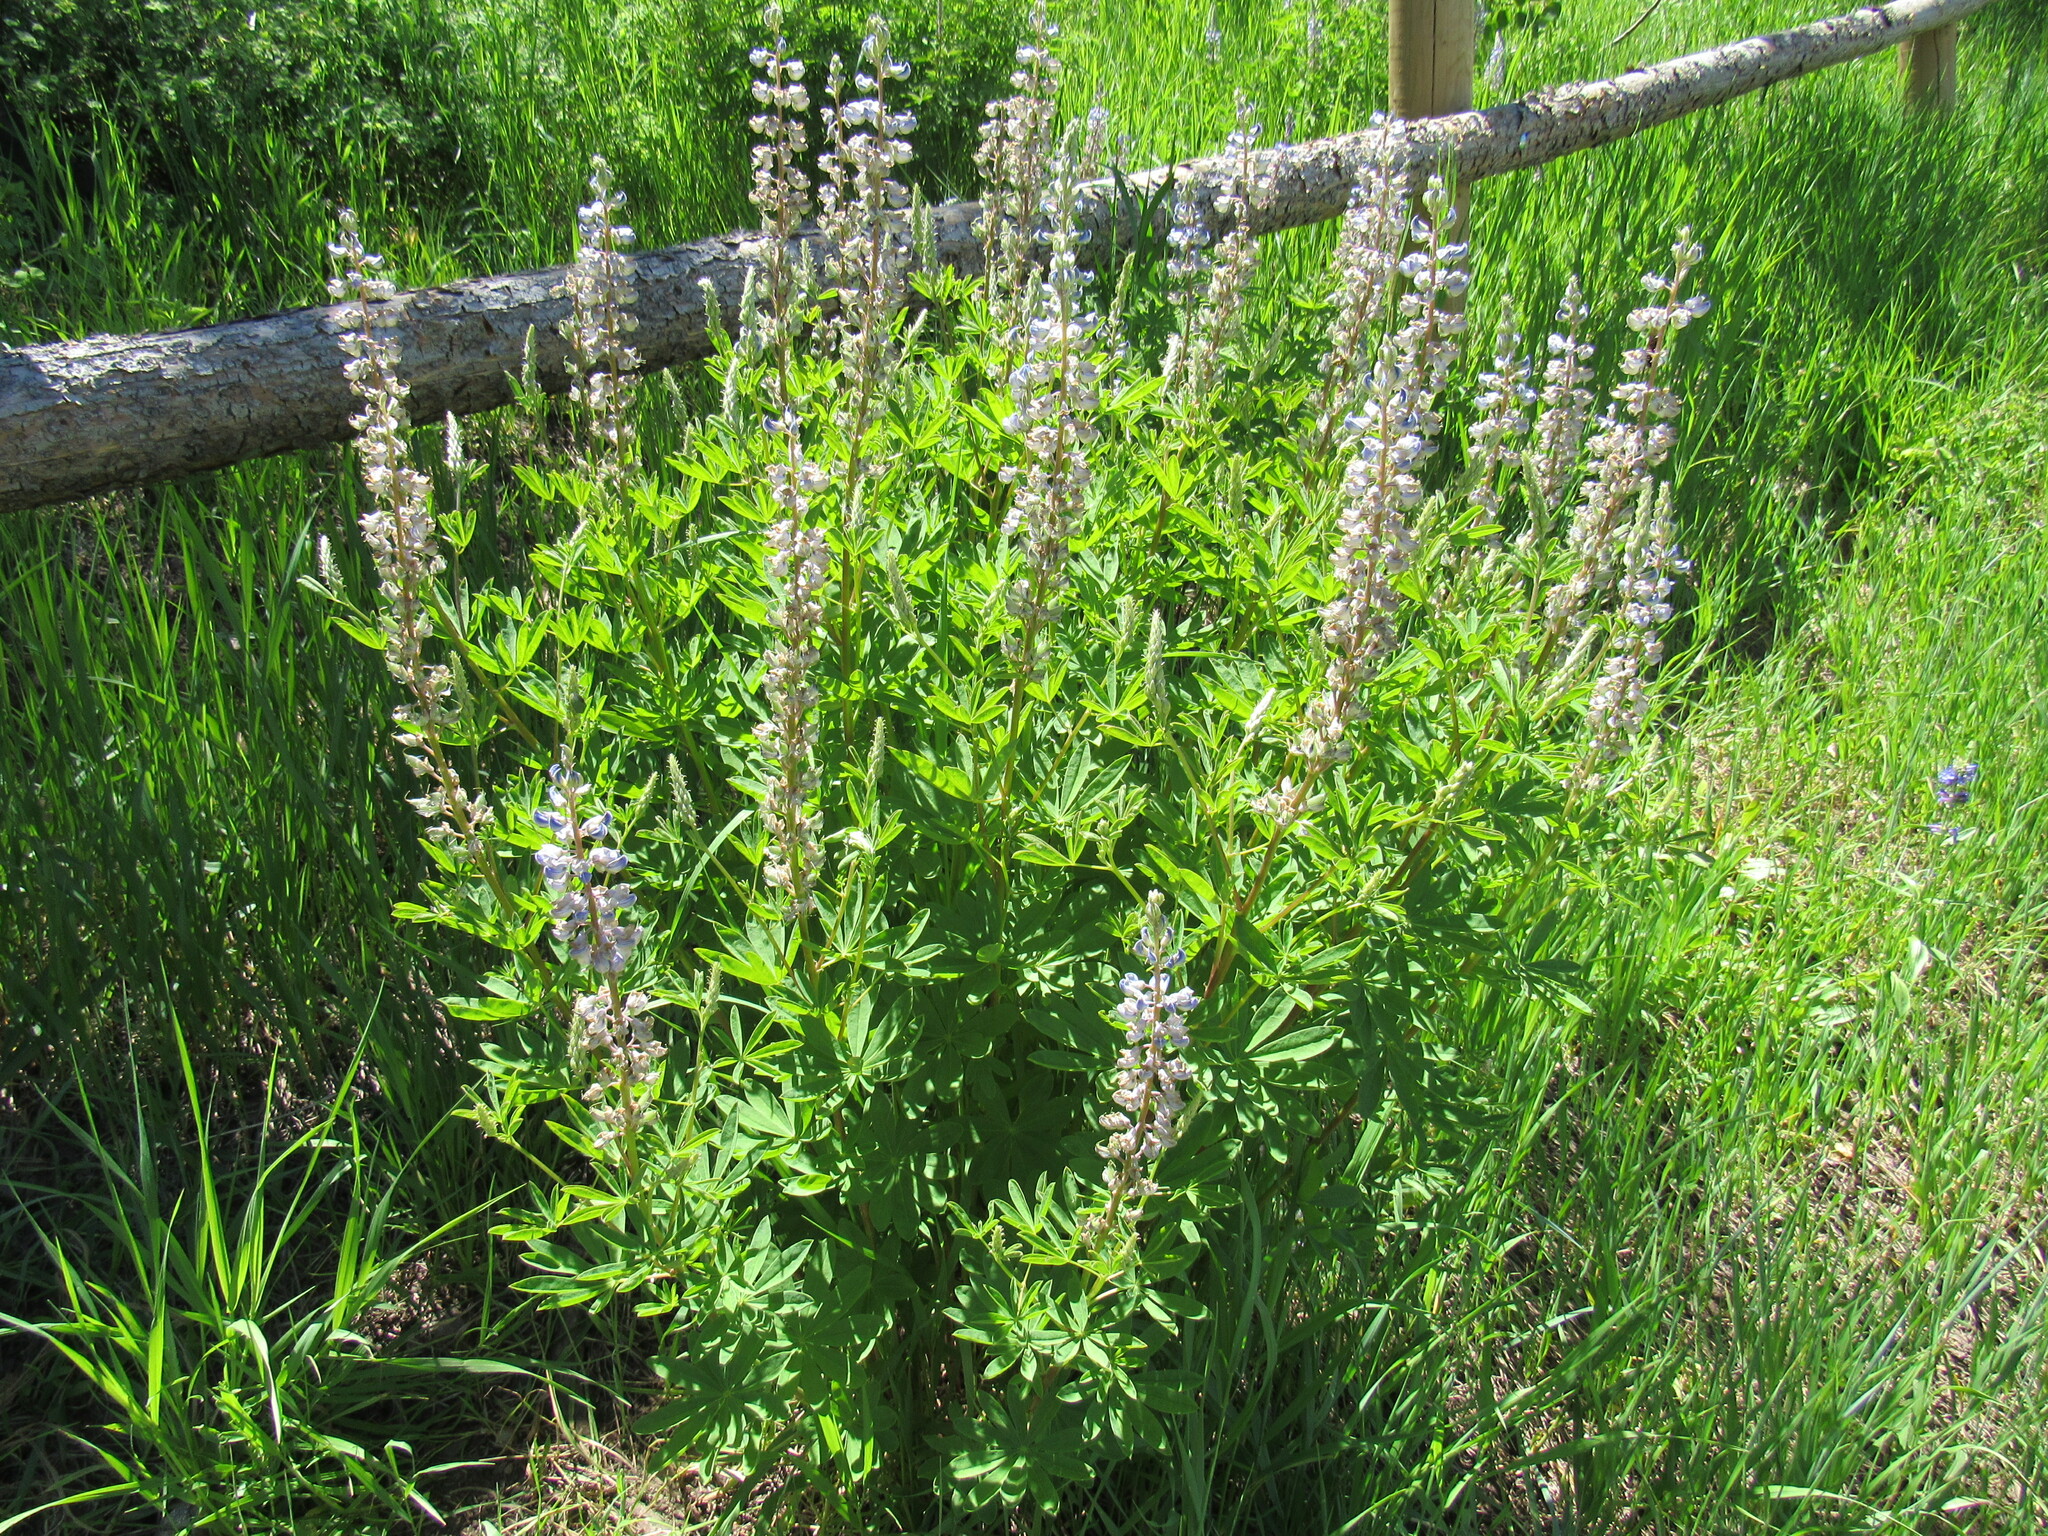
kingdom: Plantae
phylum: Tracheophyta
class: Magnoliopsida
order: Fabales
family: Fabaceae
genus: Lupinus
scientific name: Lupinus argenteus
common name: Silvery lupine
